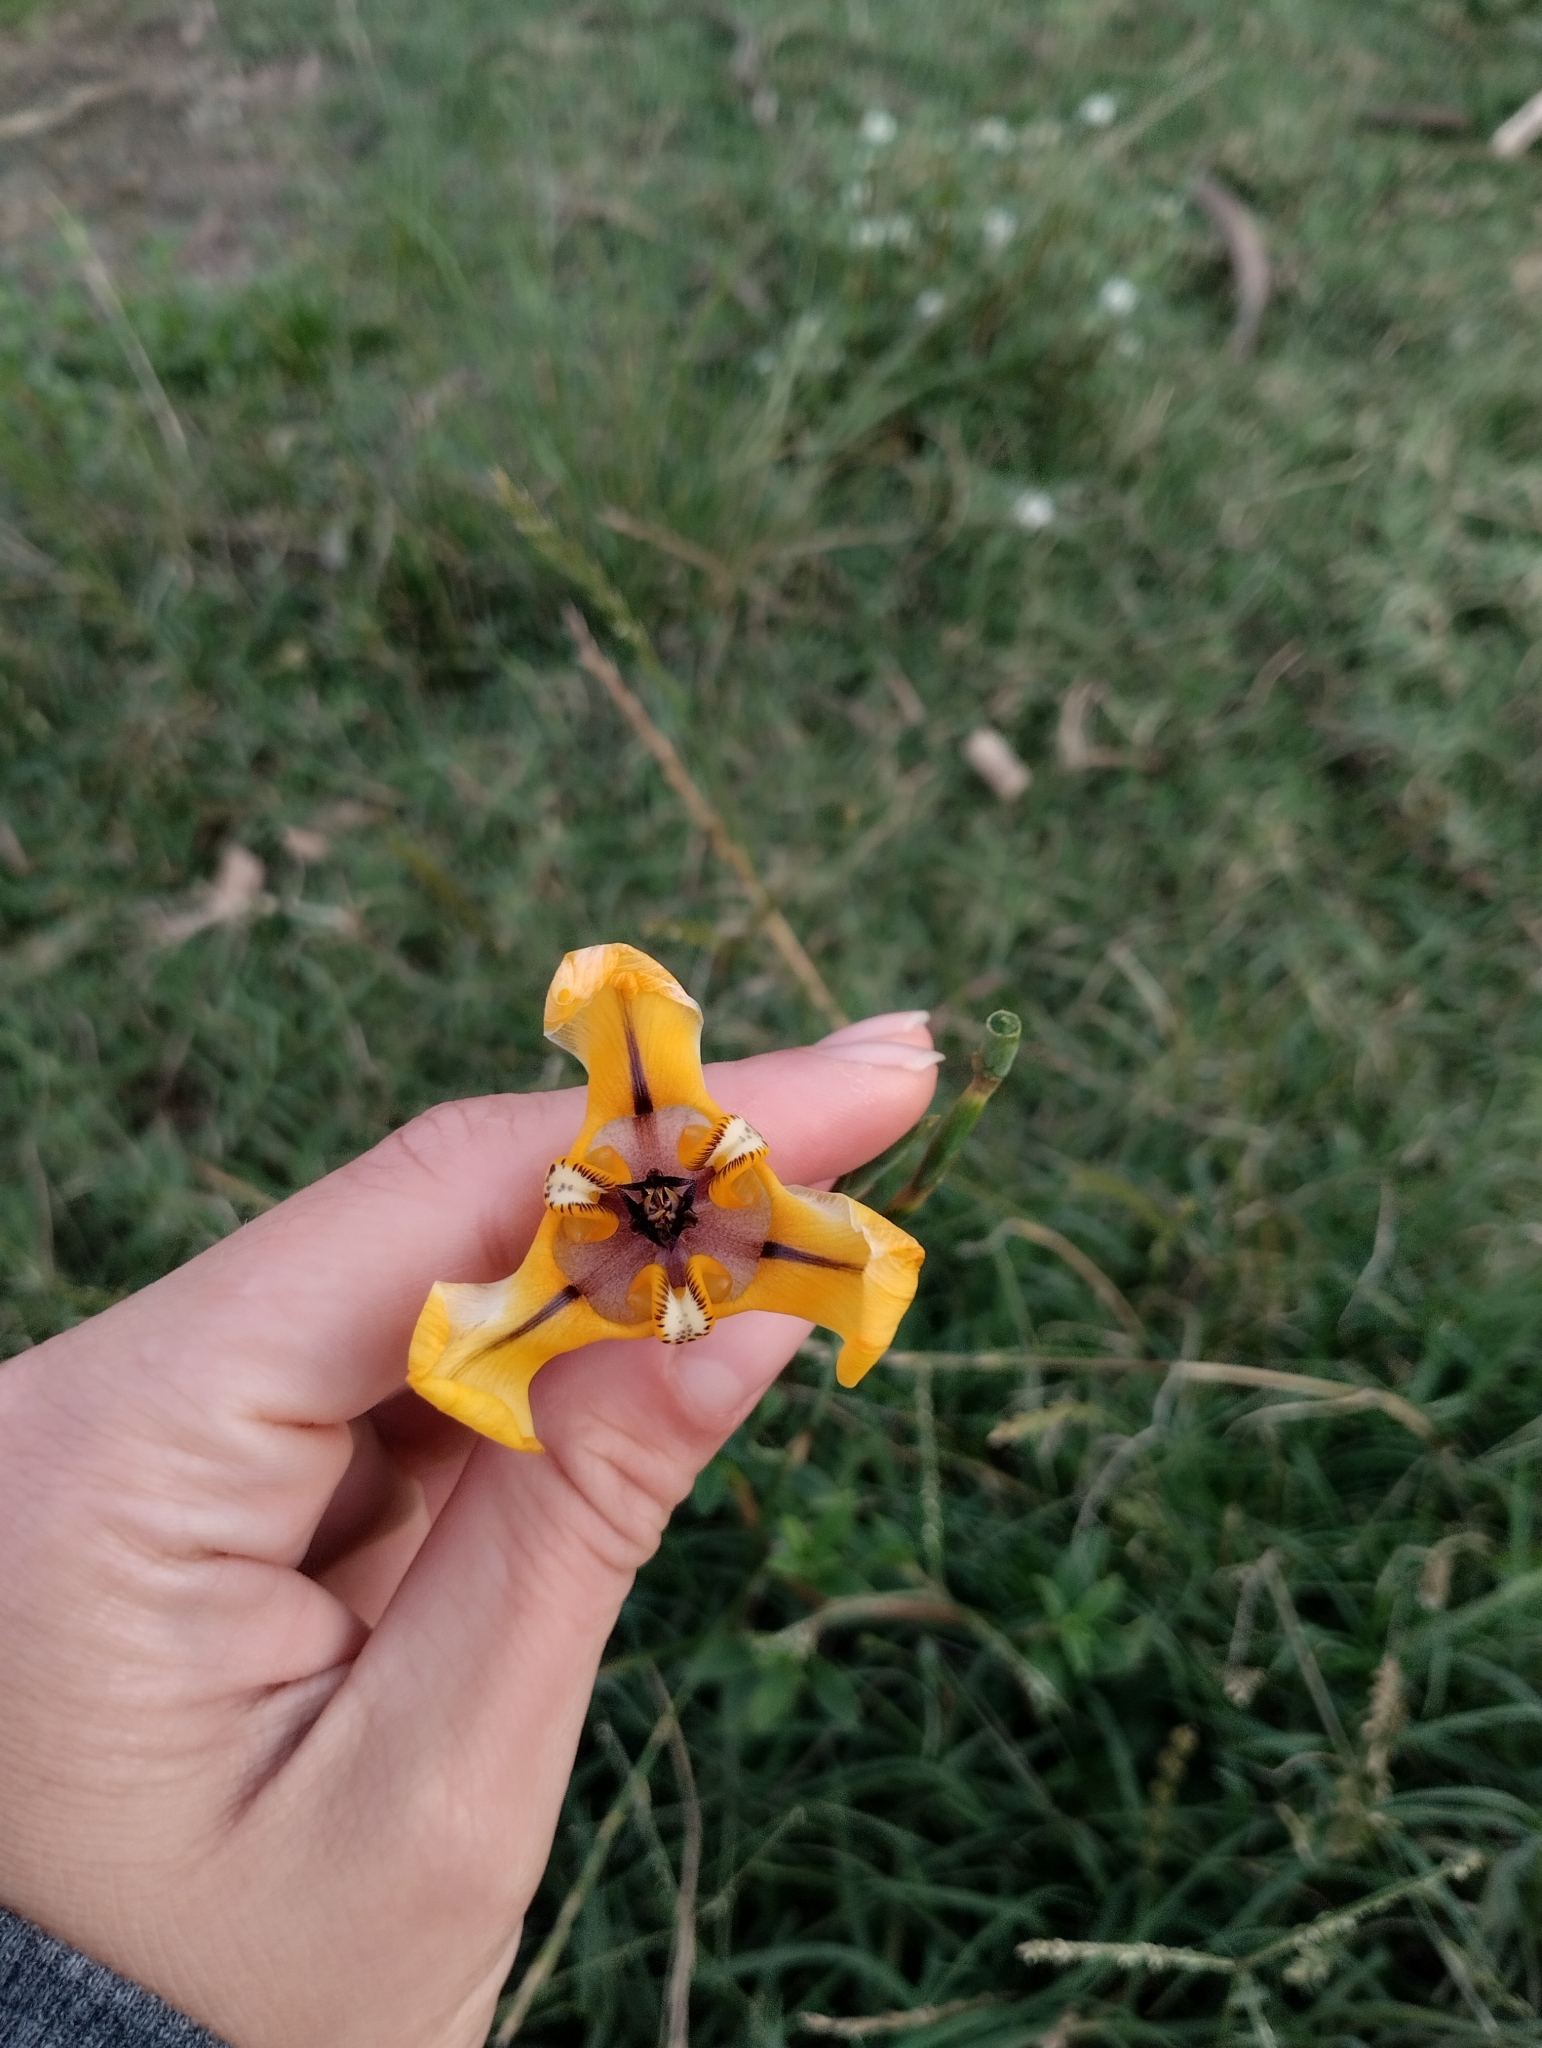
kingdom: Plantae
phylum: Tracheophyta
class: Liliopsida
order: Asparagales
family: Iridaceae
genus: Cypella
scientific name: Cypella herbertii
